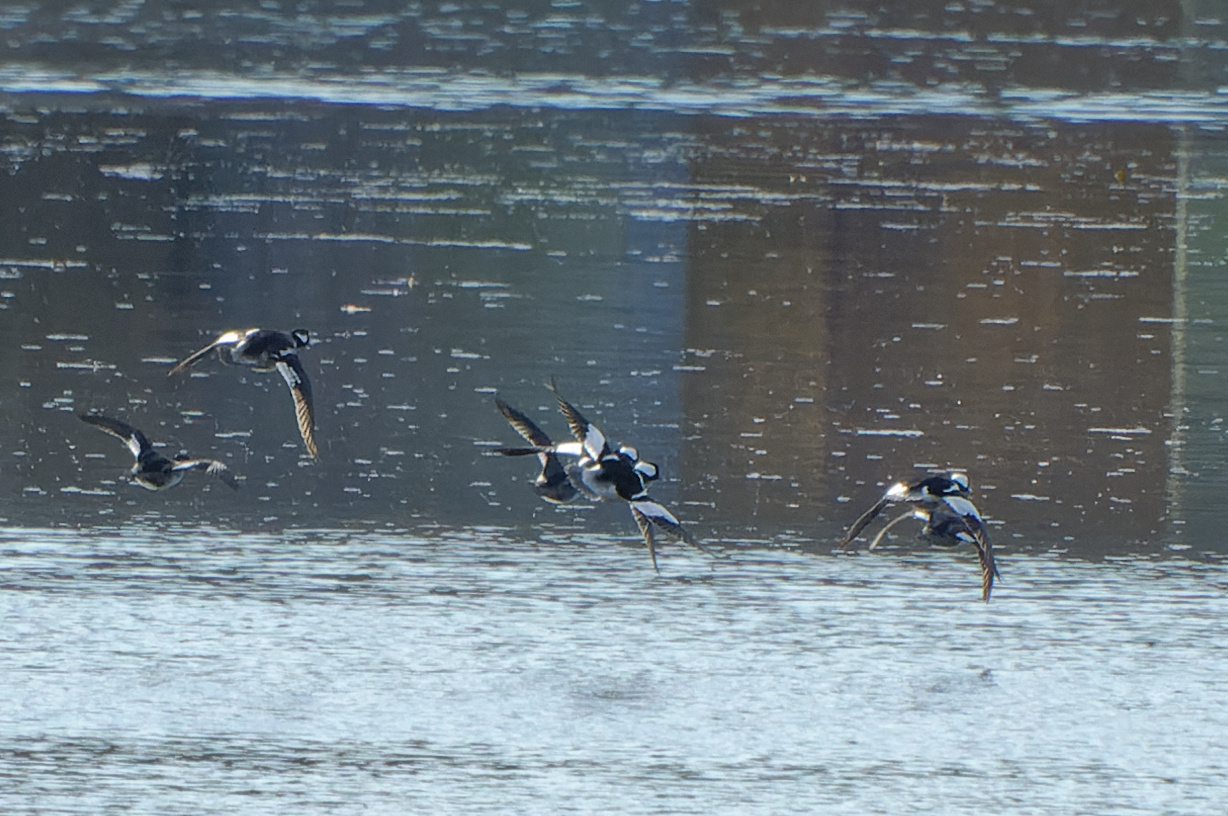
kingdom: Animalia
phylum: Chordata
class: Aves
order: Anseriformes
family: Anatidae
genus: Bucephala
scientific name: Bucephala albeola
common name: Bufflehead
